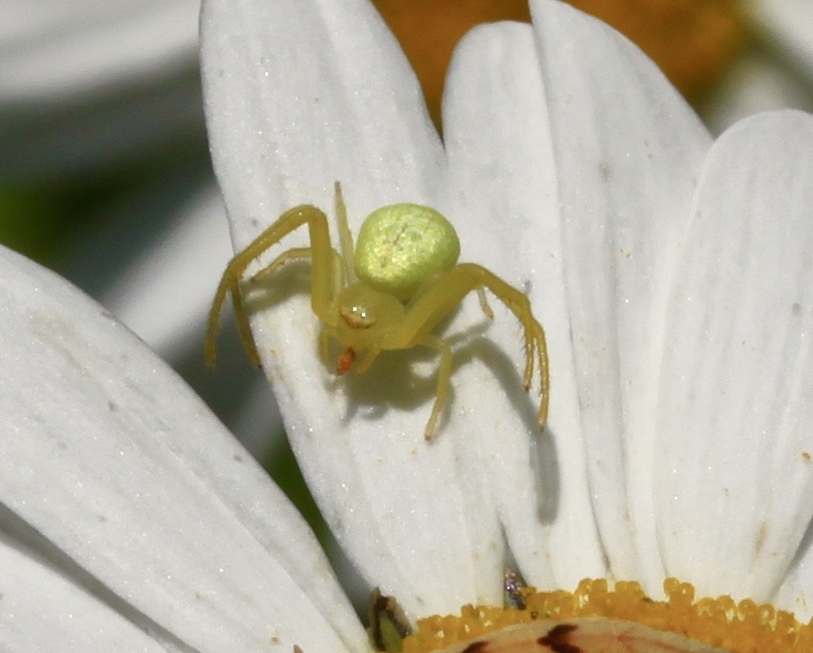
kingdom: Animalia
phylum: Arthropoda
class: Arachnida
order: Araneae
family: Thomisidae
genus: Misumessus
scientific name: Misumessus oblongus
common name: American green crab spider
